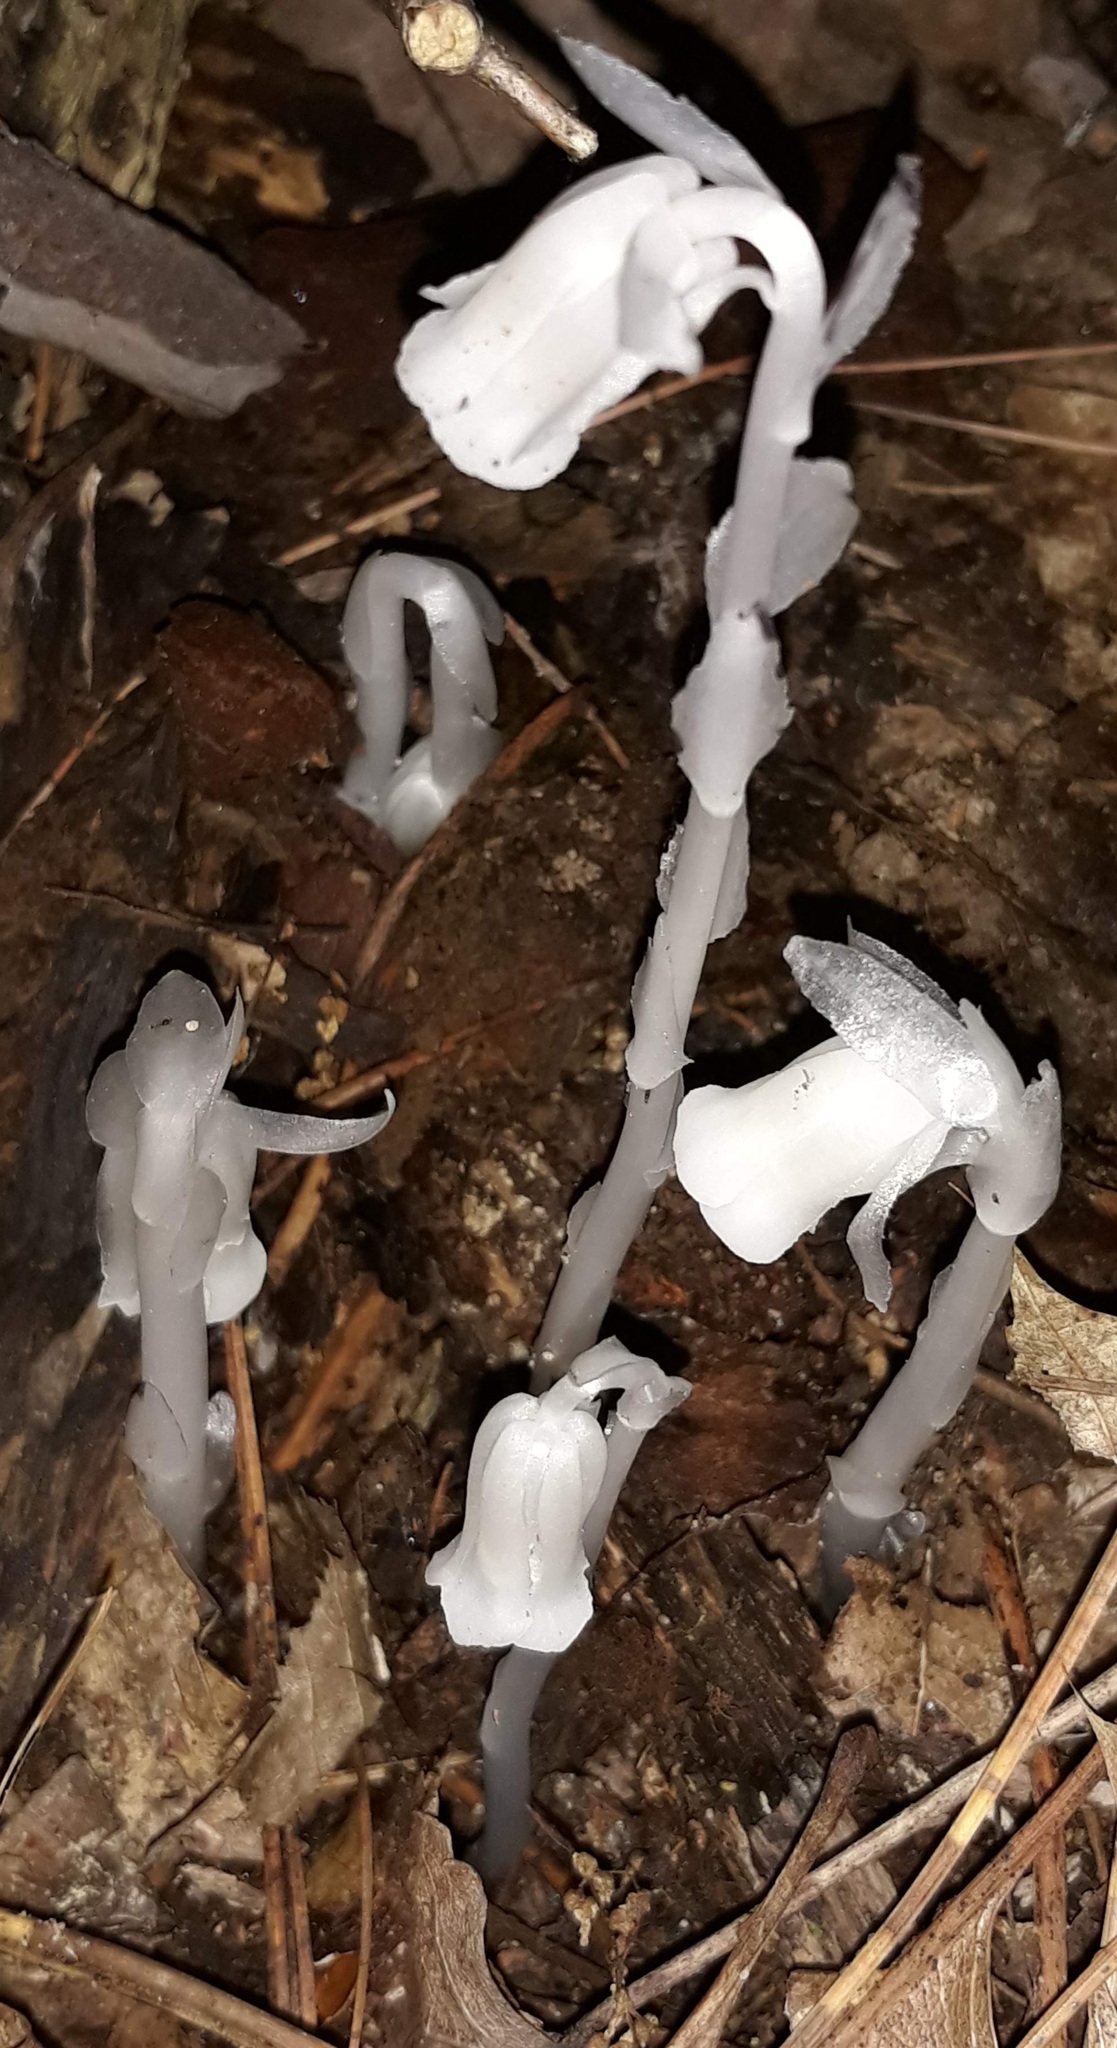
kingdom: Plantae
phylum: Tracheophyta
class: Magnoliopsida
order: Ericales
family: Ericaceae
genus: Monotropa
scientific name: Monotropa uniflora
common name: Convulsion root
